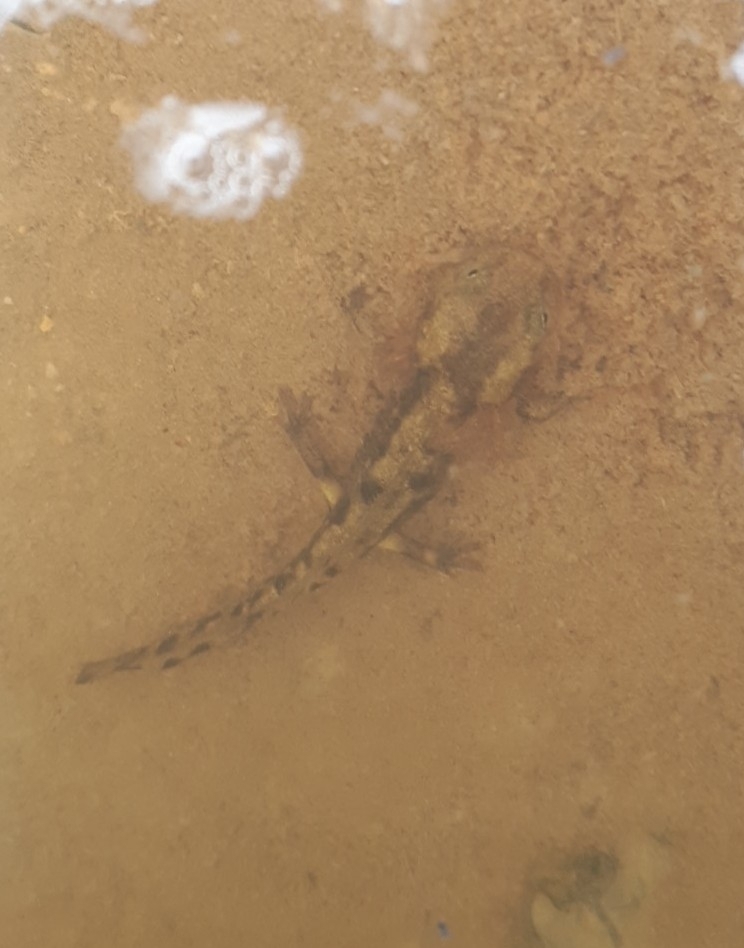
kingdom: Animalia
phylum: Chordata
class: Amphibia
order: Caudata
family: Salamandridae
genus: Salamandra
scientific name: Salamandra salamandra
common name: Fire salamander
